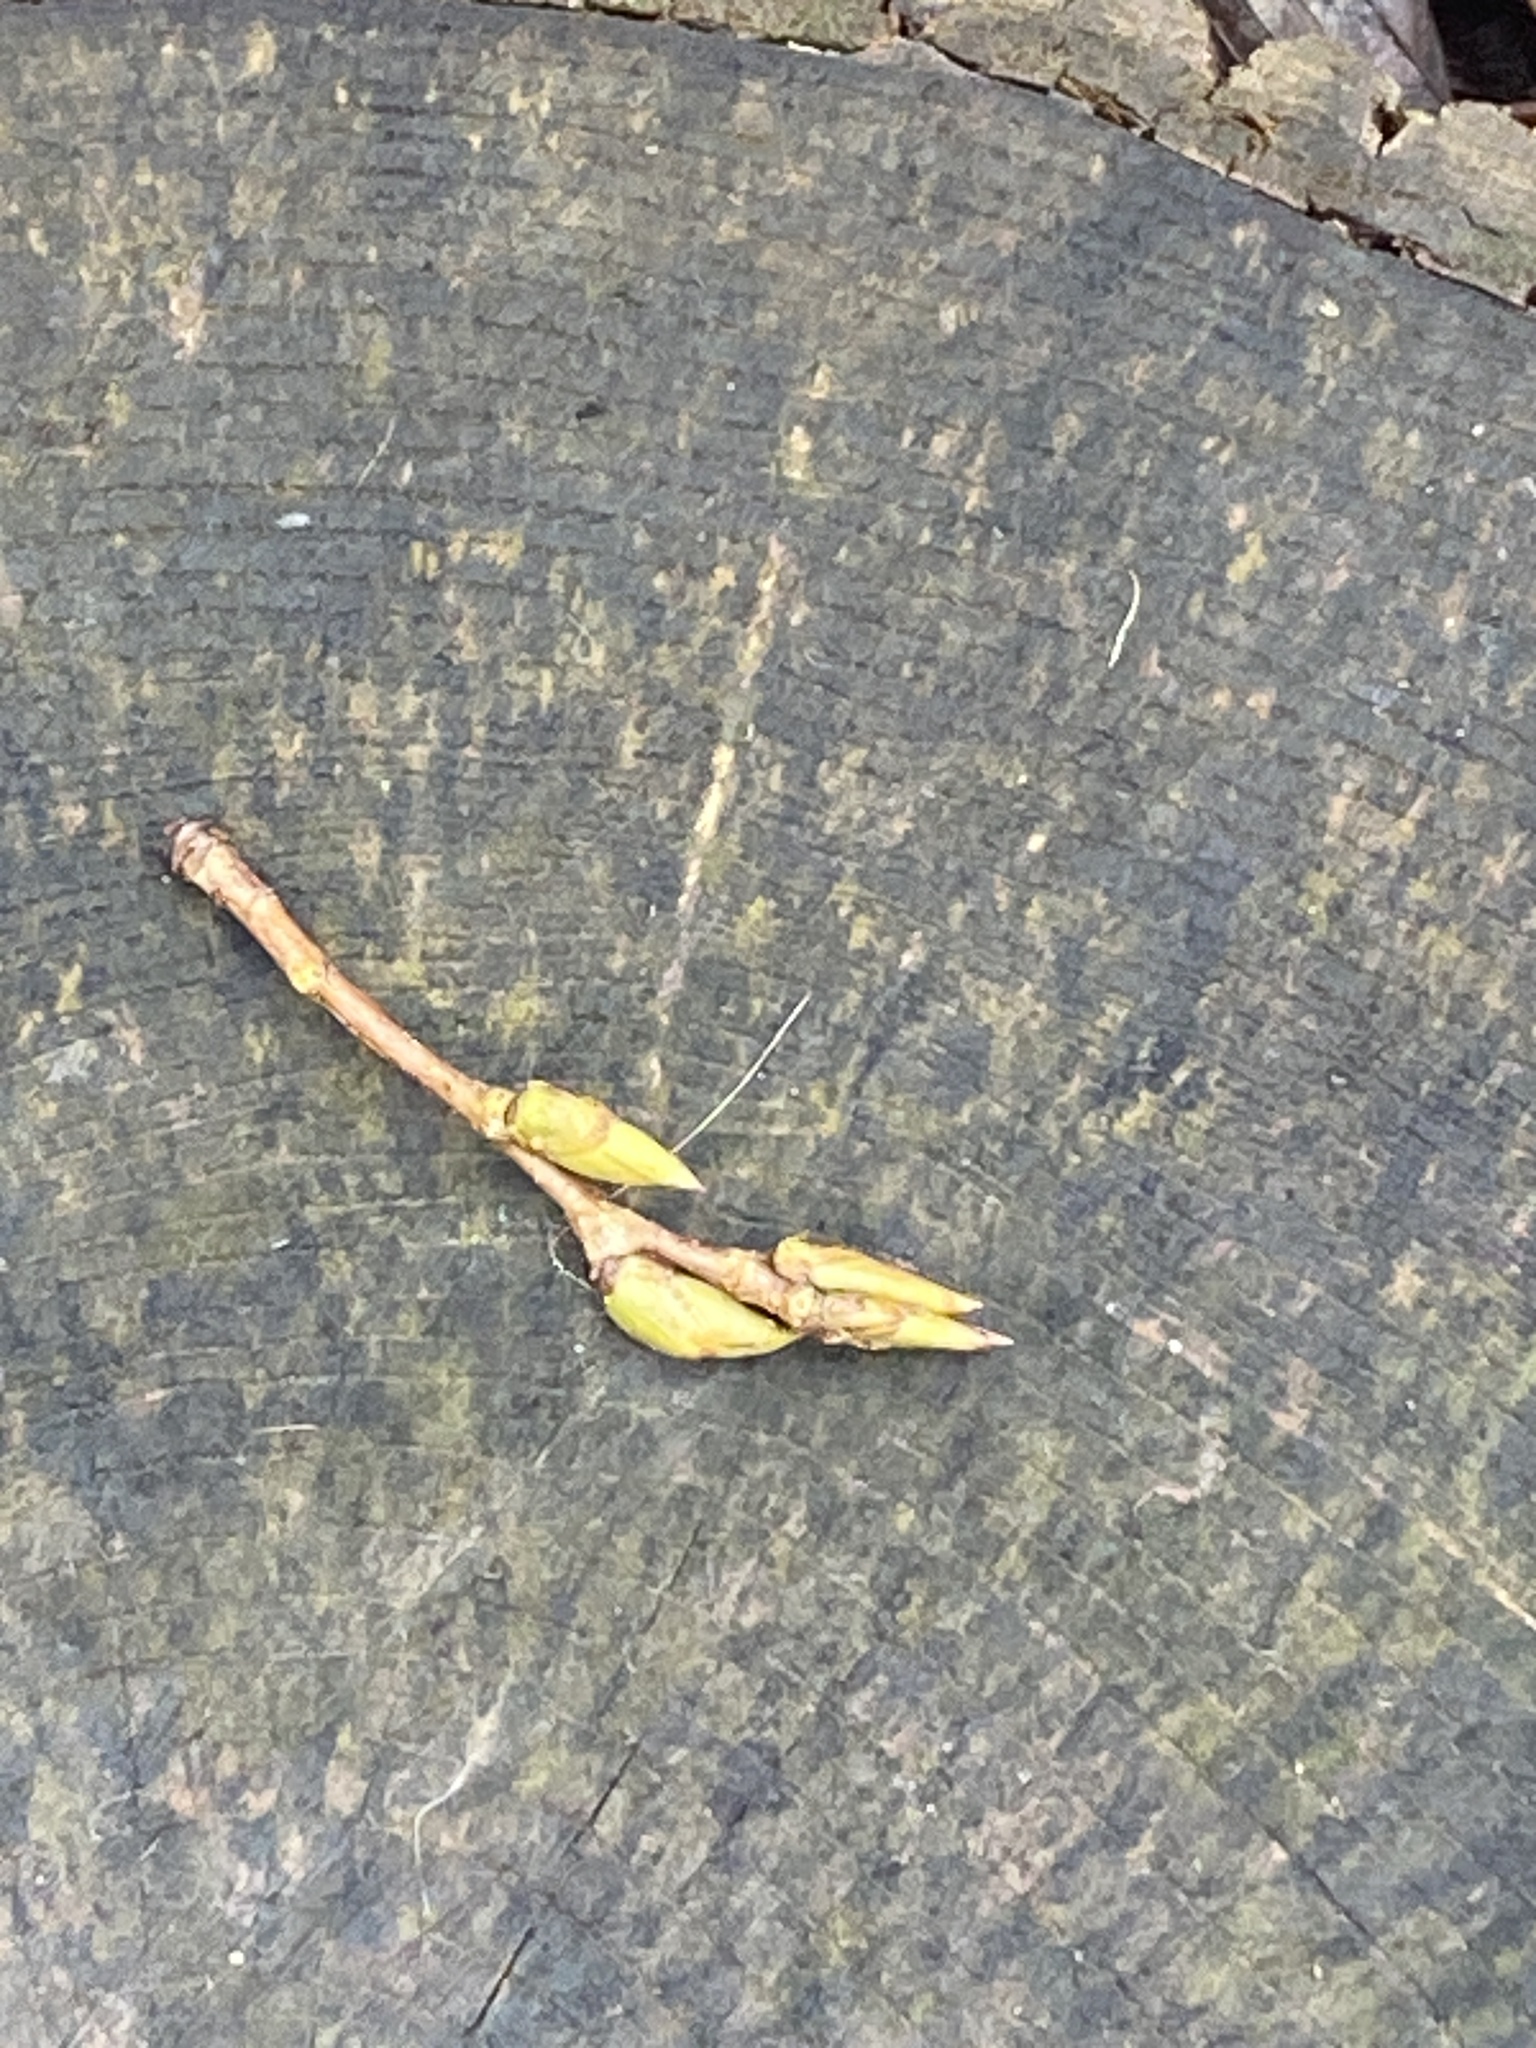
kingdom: Plantae
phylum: Tracheophyta
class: Magnoliopsida
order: Malpighiales
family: Salicaceae
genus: Populus
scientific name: Populus deltoides
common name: Eastern cottonwood
